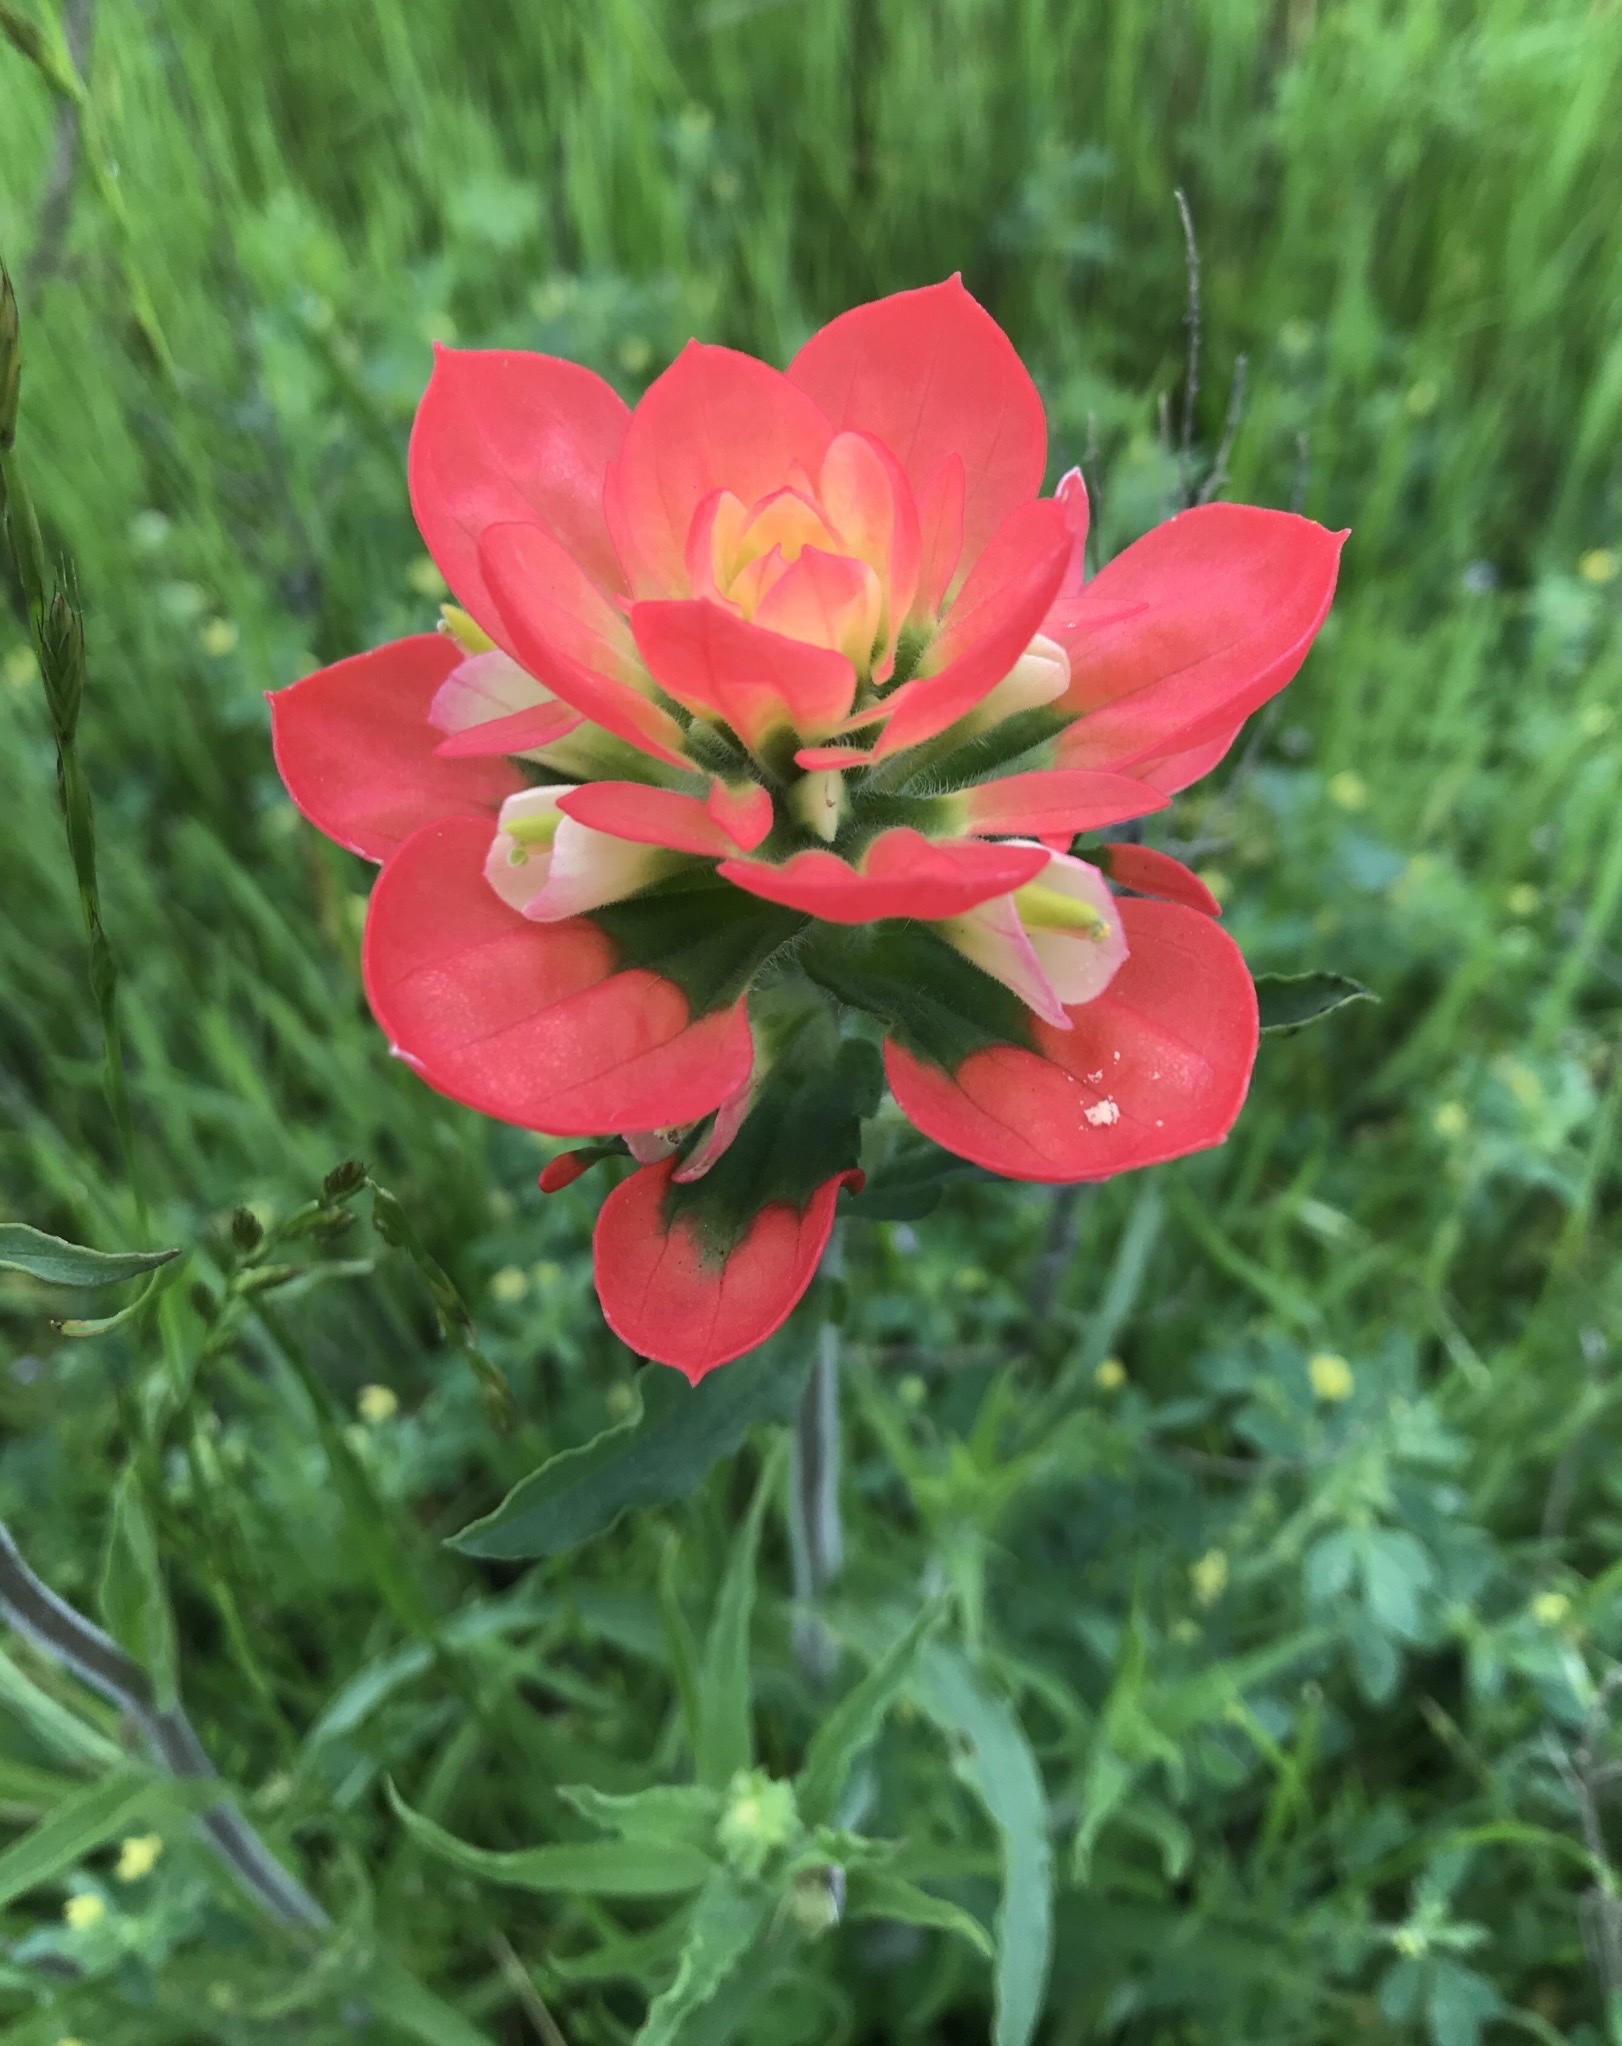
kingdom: Plantae
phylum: Tracheophyta
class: Magnoliopsida
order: Lamiales
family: Orobanchaceae
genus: Castilleja
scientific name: Castilleja indivisa
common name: Texas paintbrush
